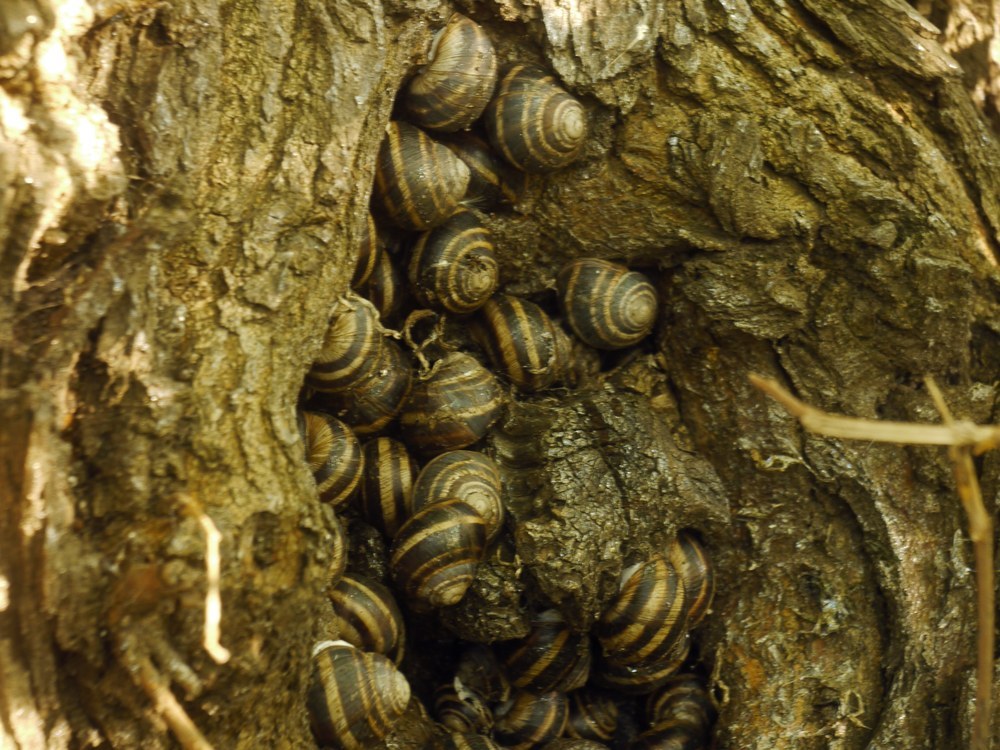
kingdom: Animalia
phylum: Mollusca
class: Gastropoda
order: Stylommatophora
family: Helicidae
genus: Helix
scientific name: Helix albescens
